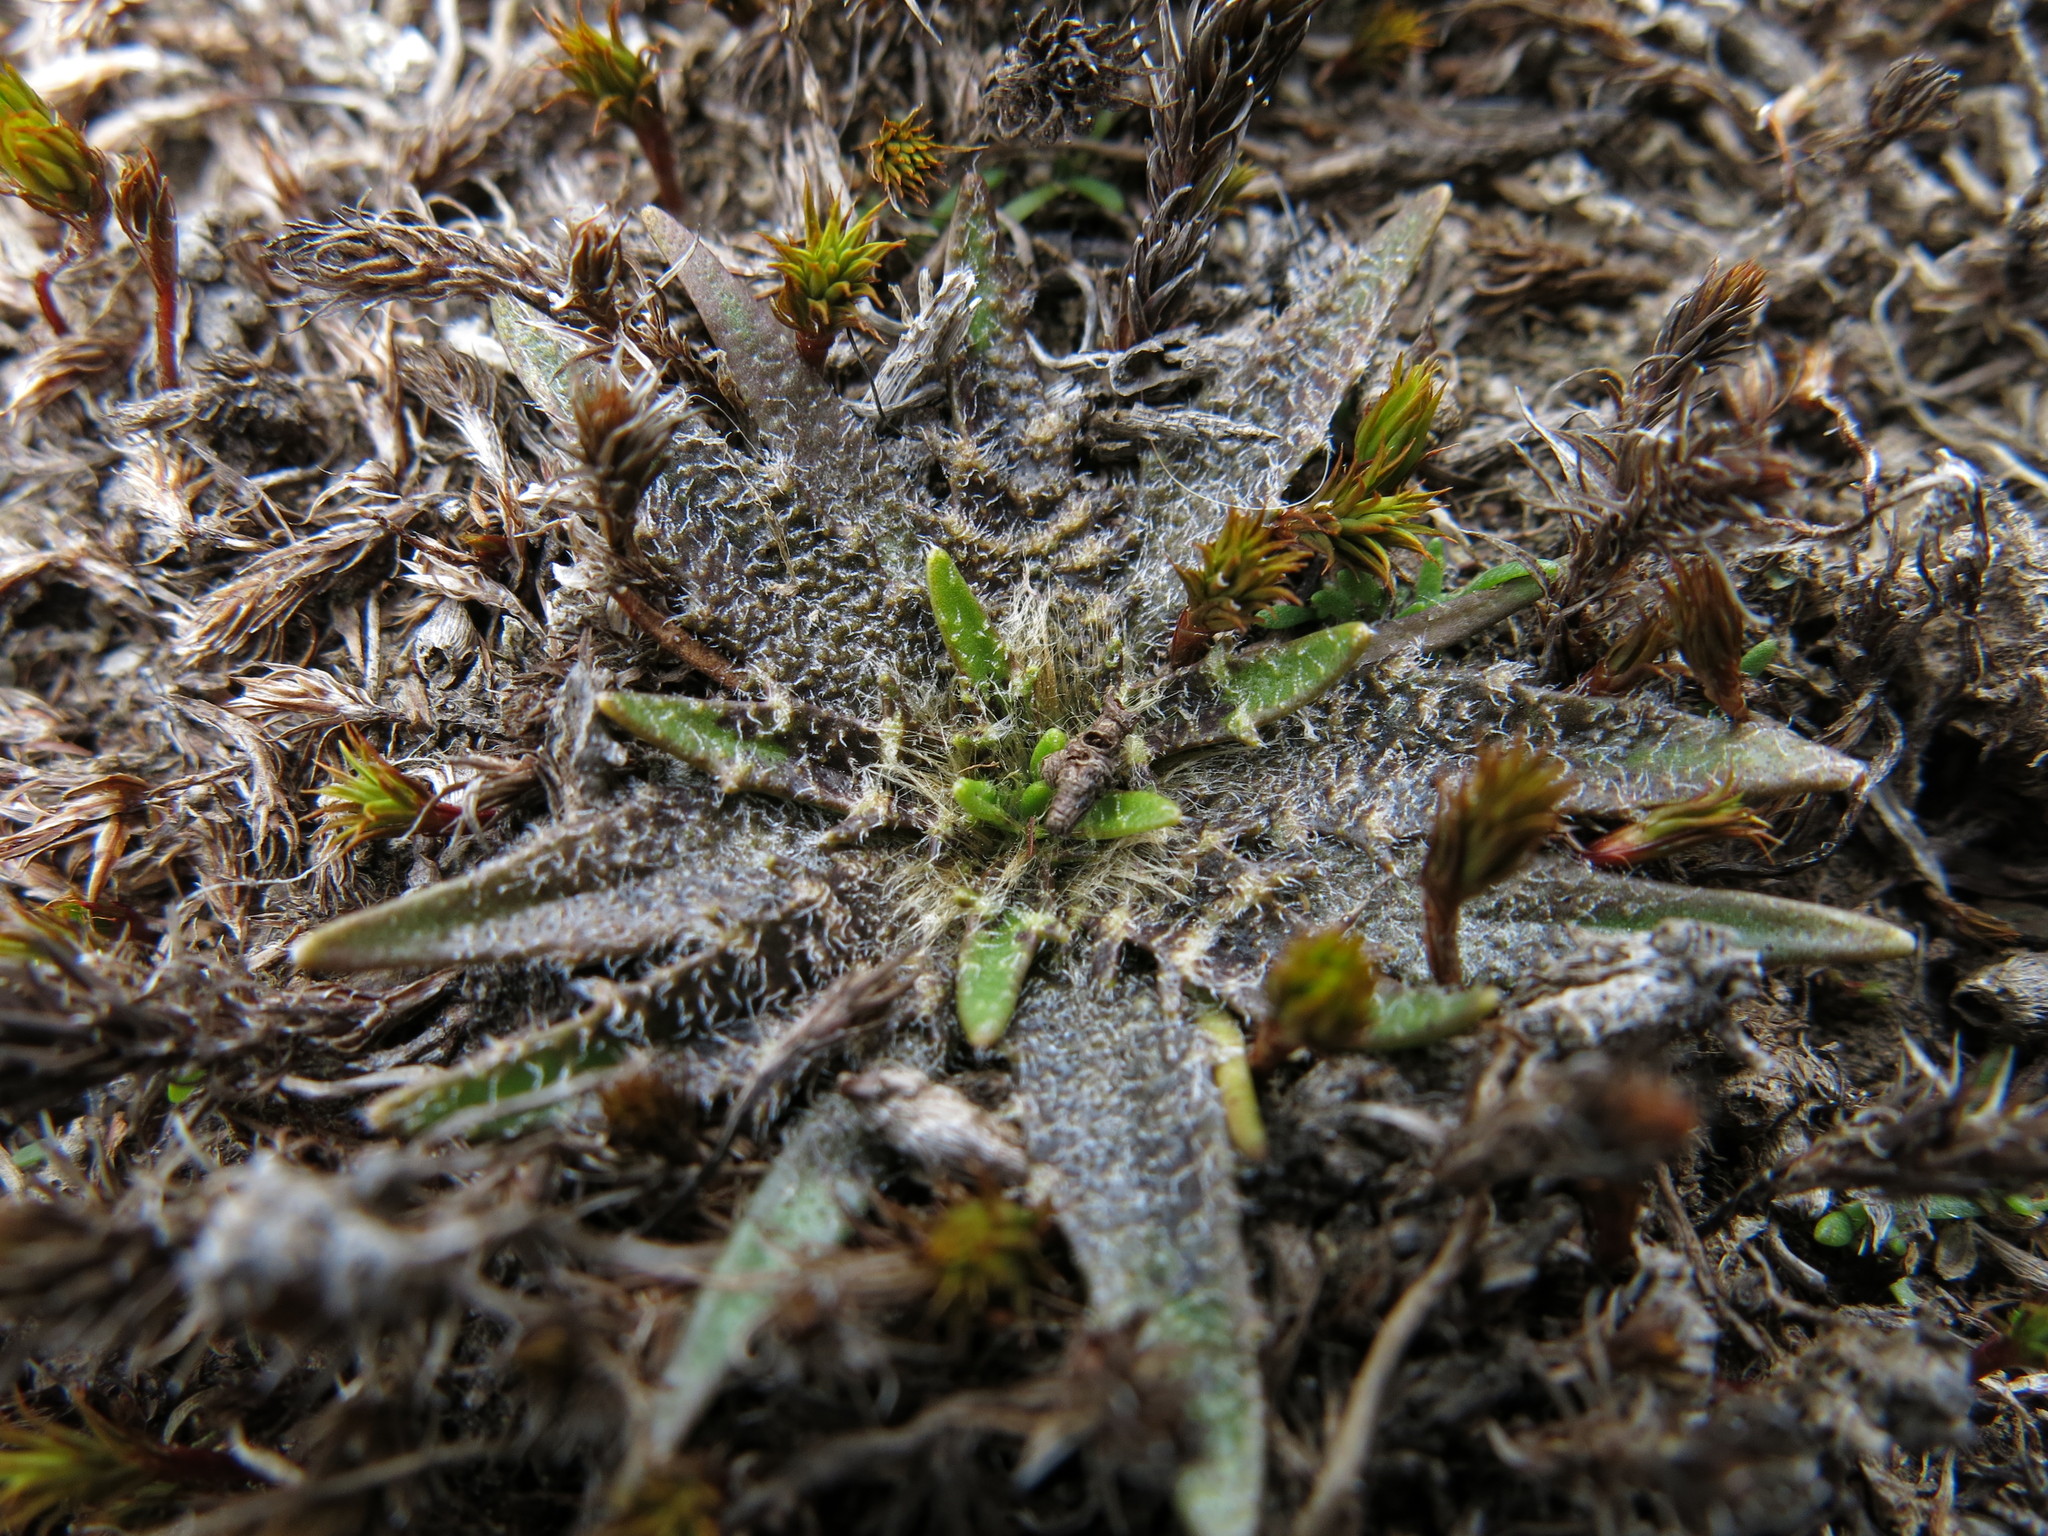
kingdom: Plantae
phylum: Tracheophyta
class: Magnoliopsida
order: Lamiales
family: Plantaginaceae
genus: Plantago
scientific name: Plantago triandra
